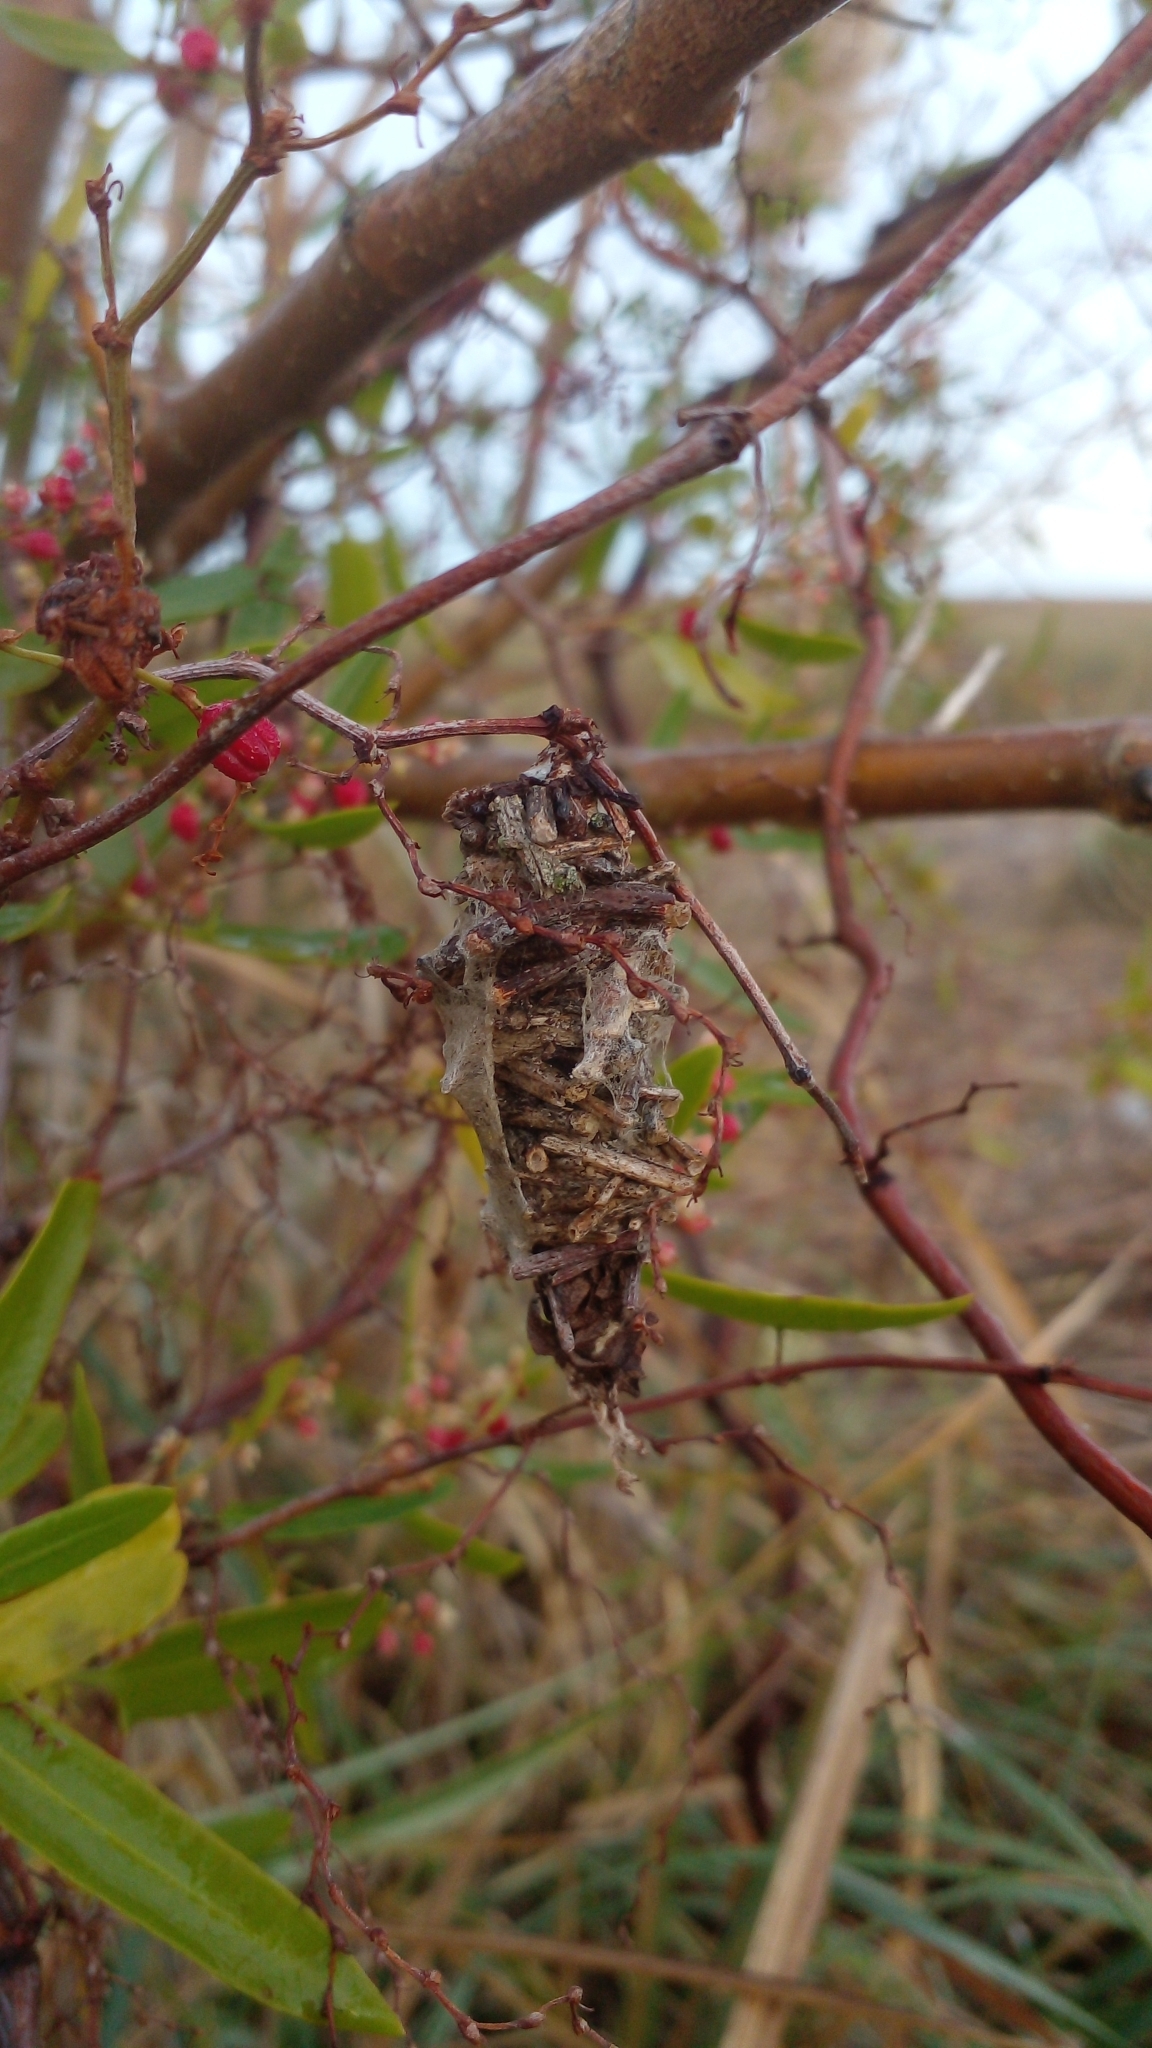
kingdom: Animalia
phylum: Arthropoda
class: Insecta
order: Lepidoptera
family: Psychidae
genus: Oiketicus
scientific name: Oiketicus
